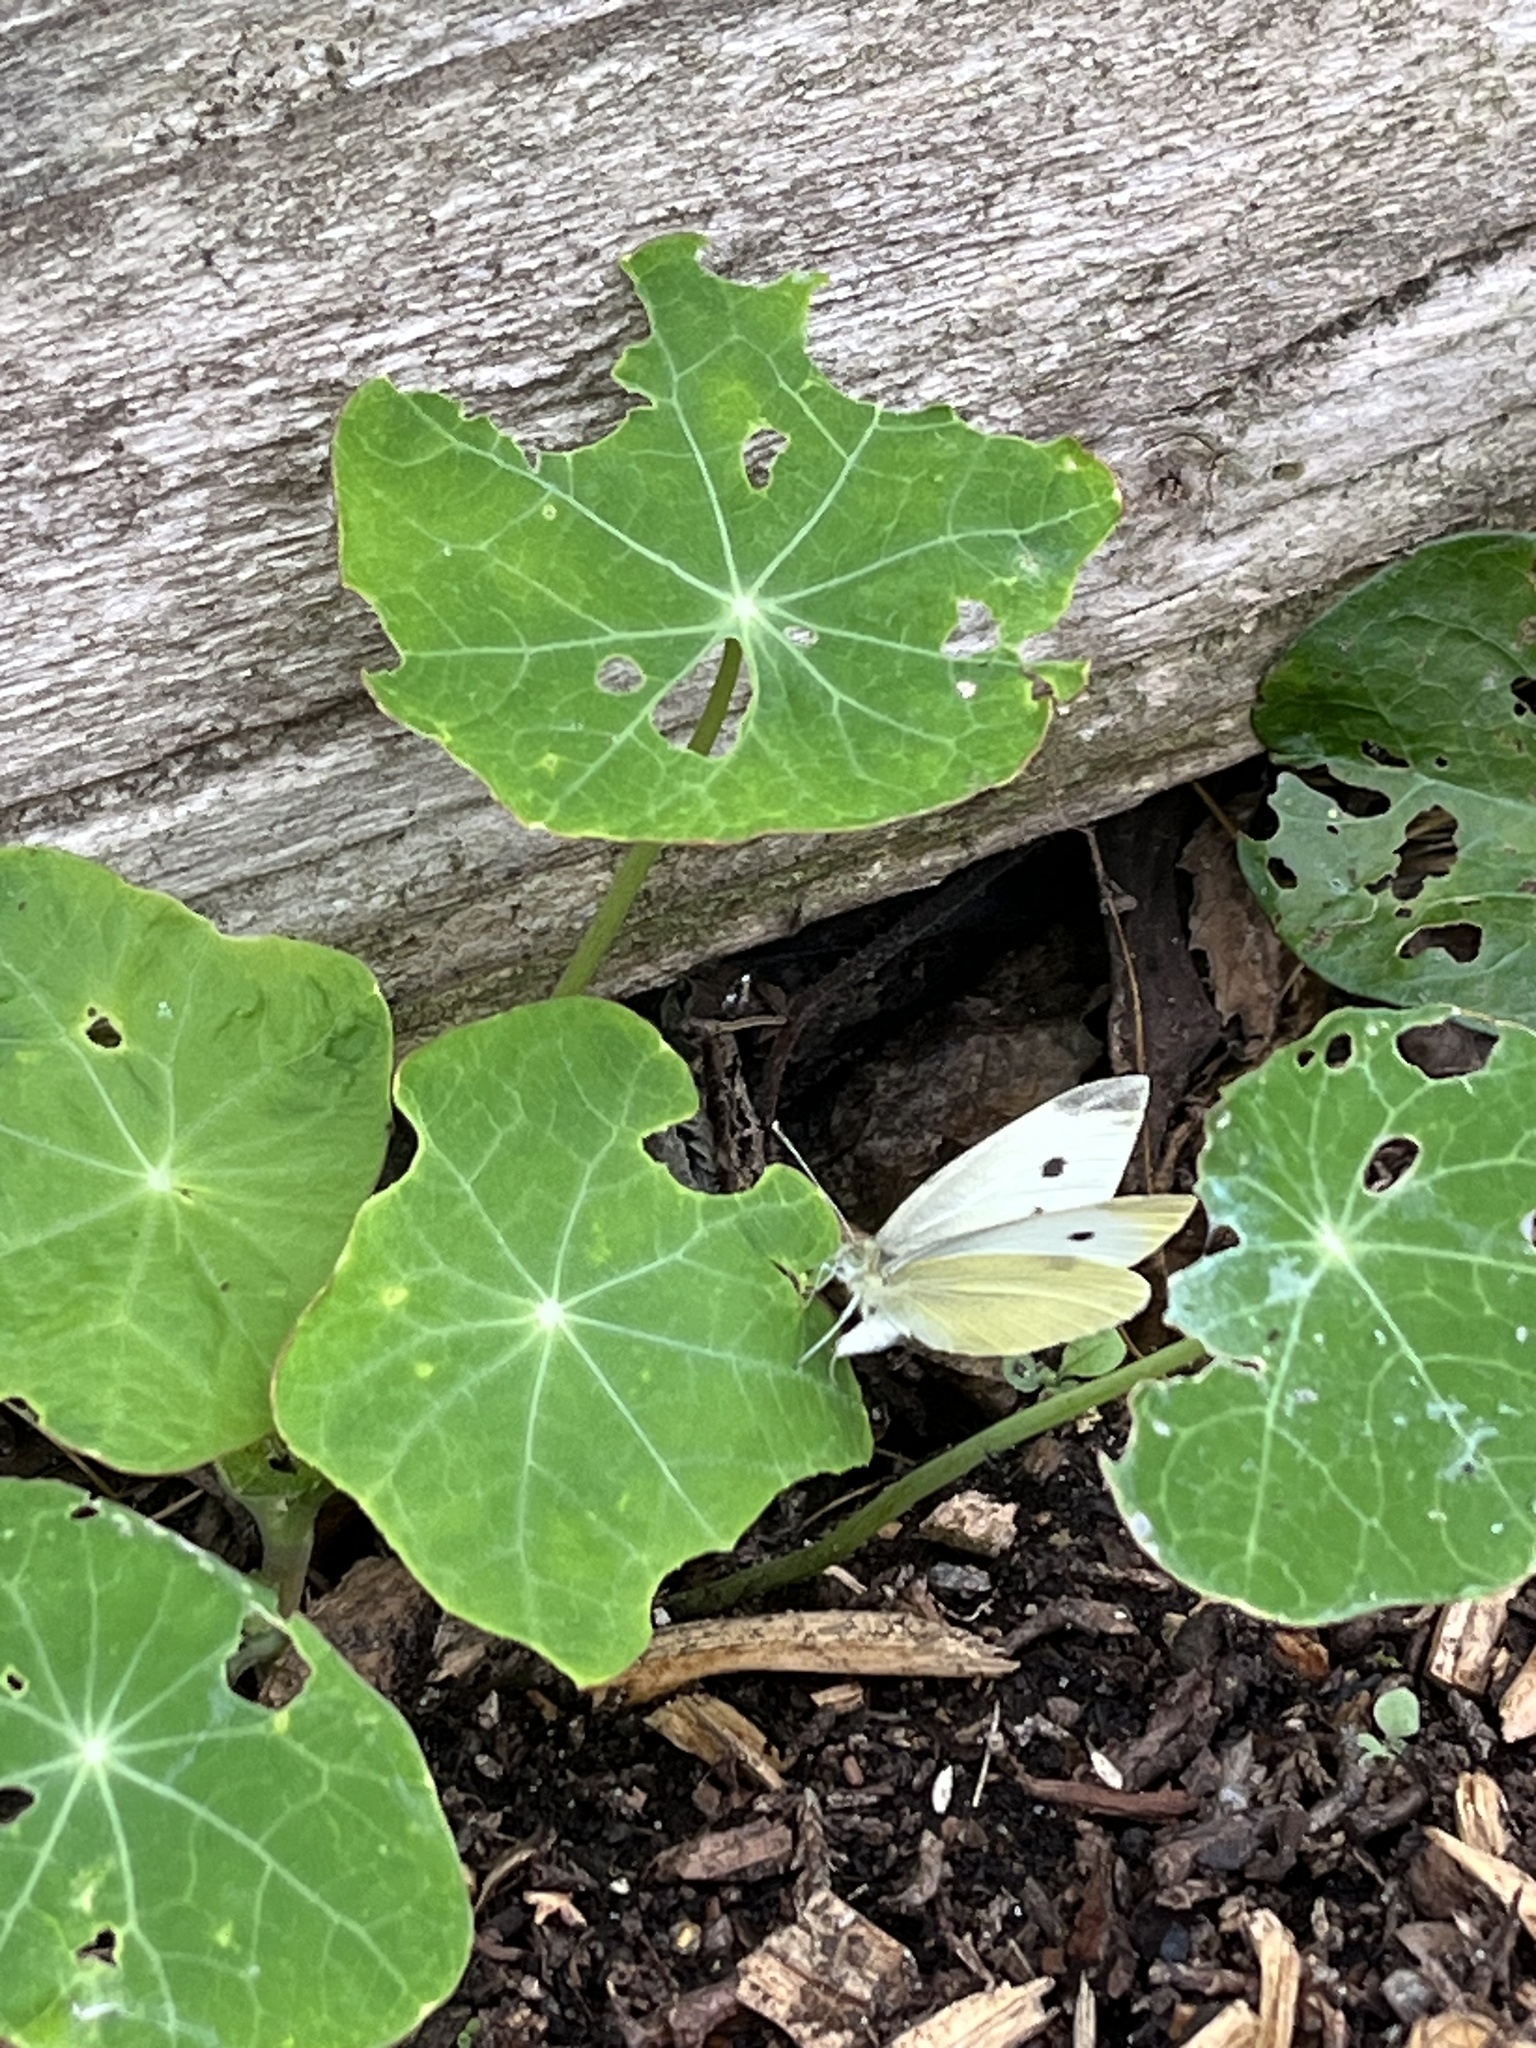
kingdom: Animalia
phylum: Arthropoda
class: Insecta
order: Lepidoptera
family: Pieridae
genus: Pieris
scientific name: Pieris rapae
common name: Small white
